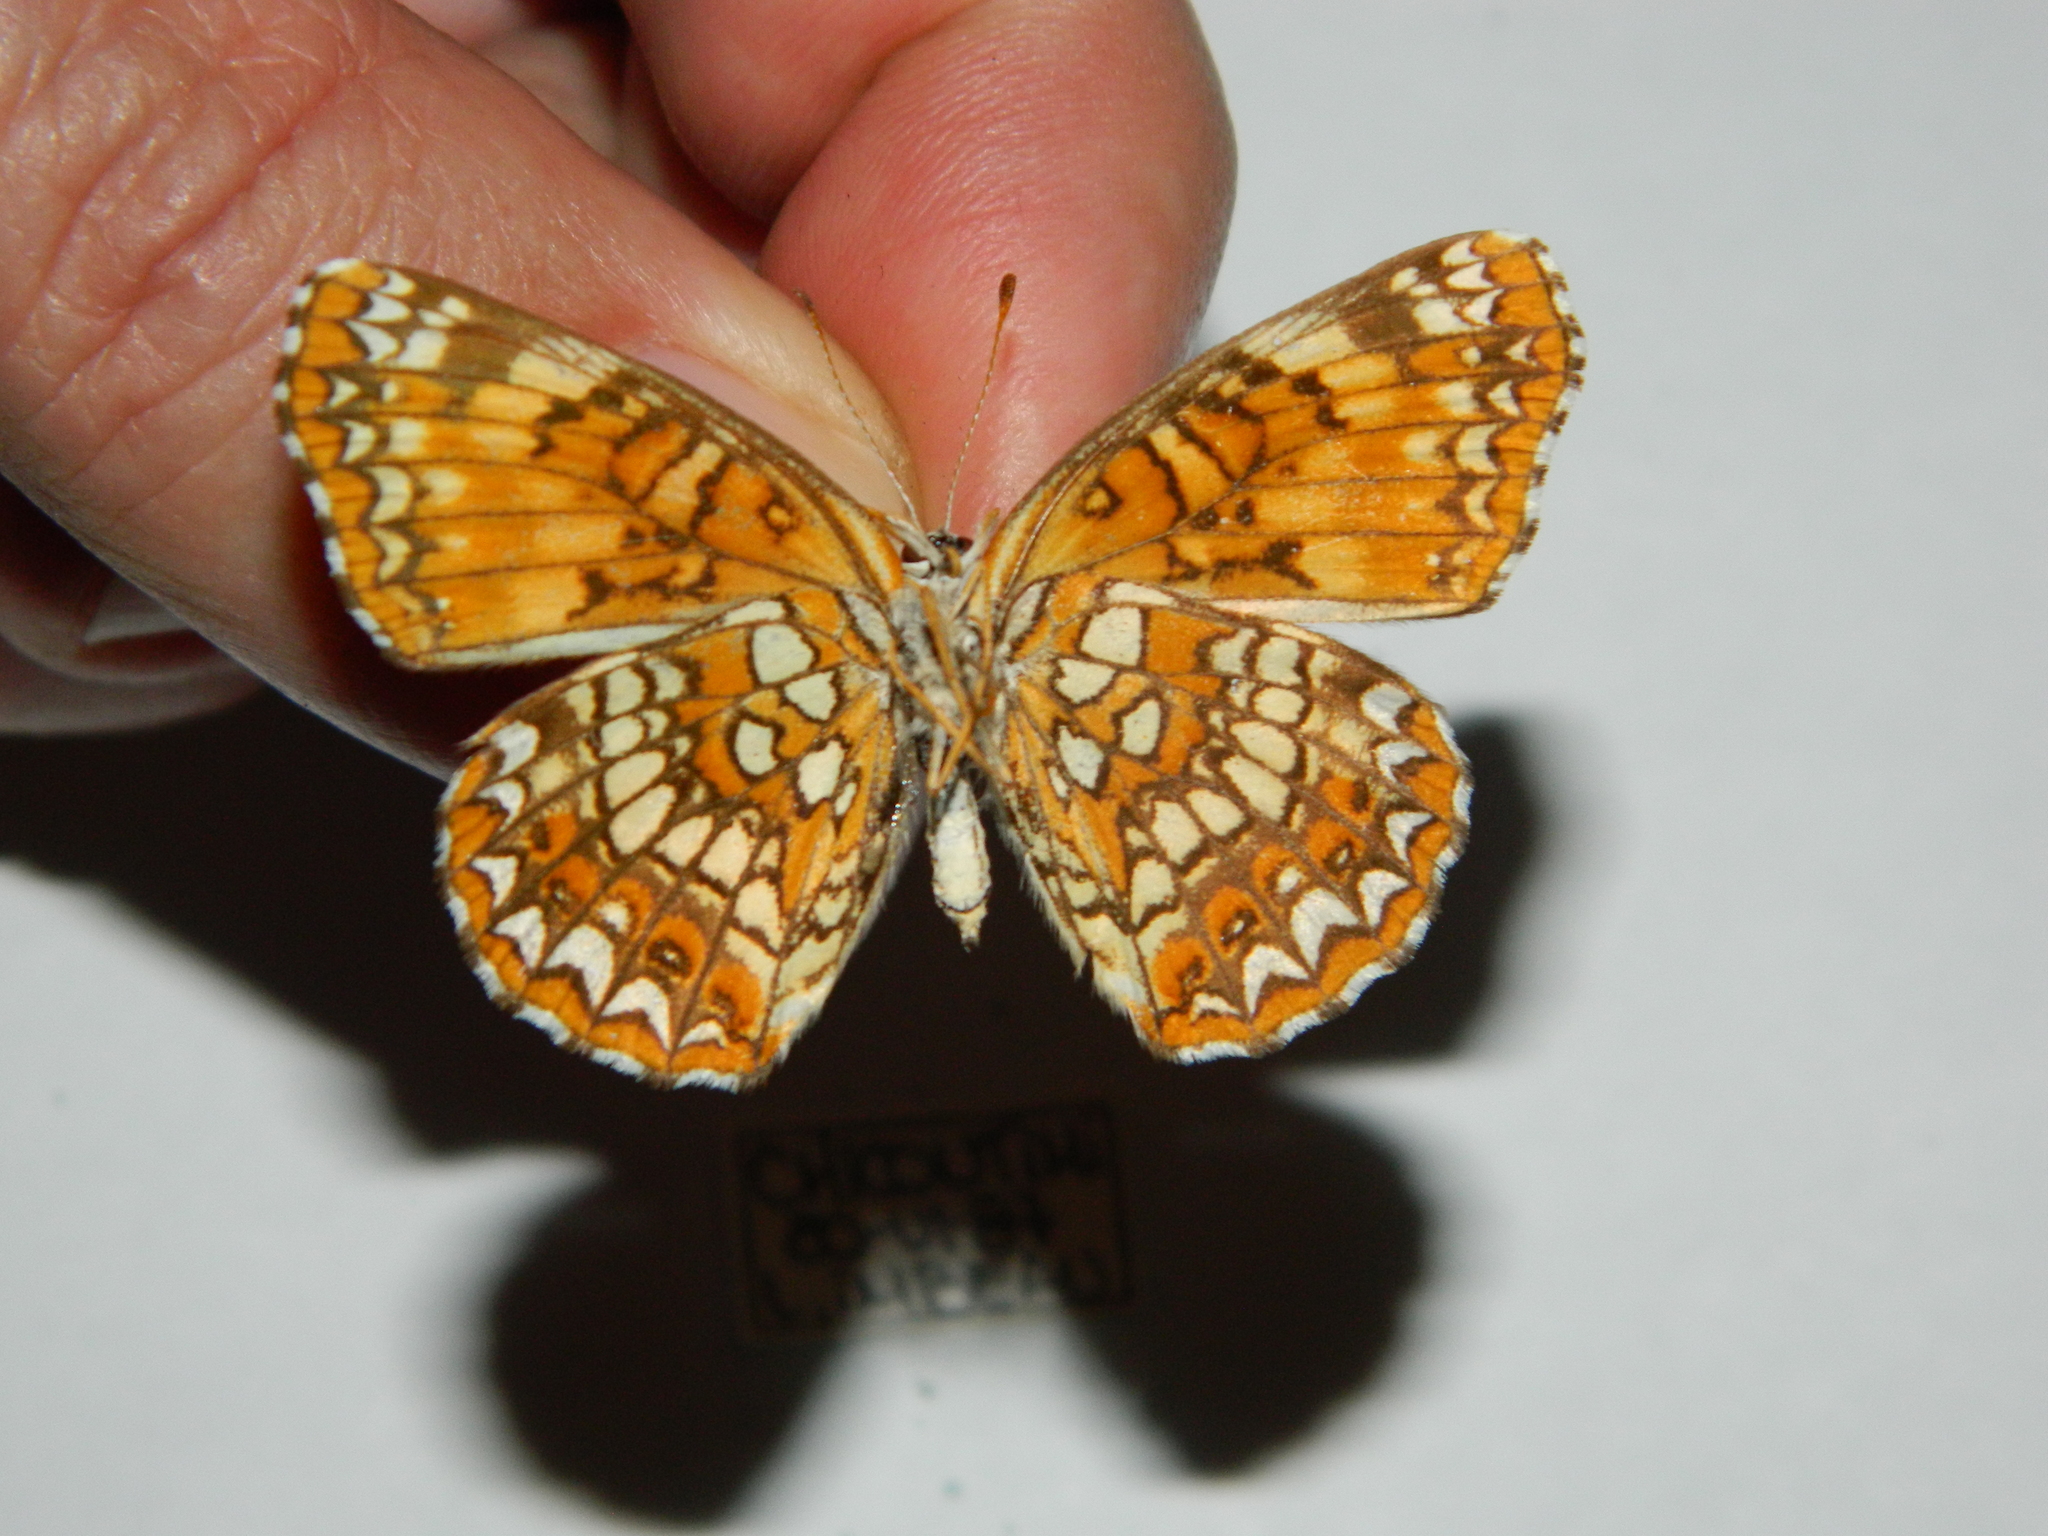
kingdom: Animalia
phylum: Arthropoda
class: Insecta
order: Lepidoptera
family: Nymphalidae
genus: Chlosyne
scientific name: Chlosyne harrisii
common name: Harris's checkerspot
